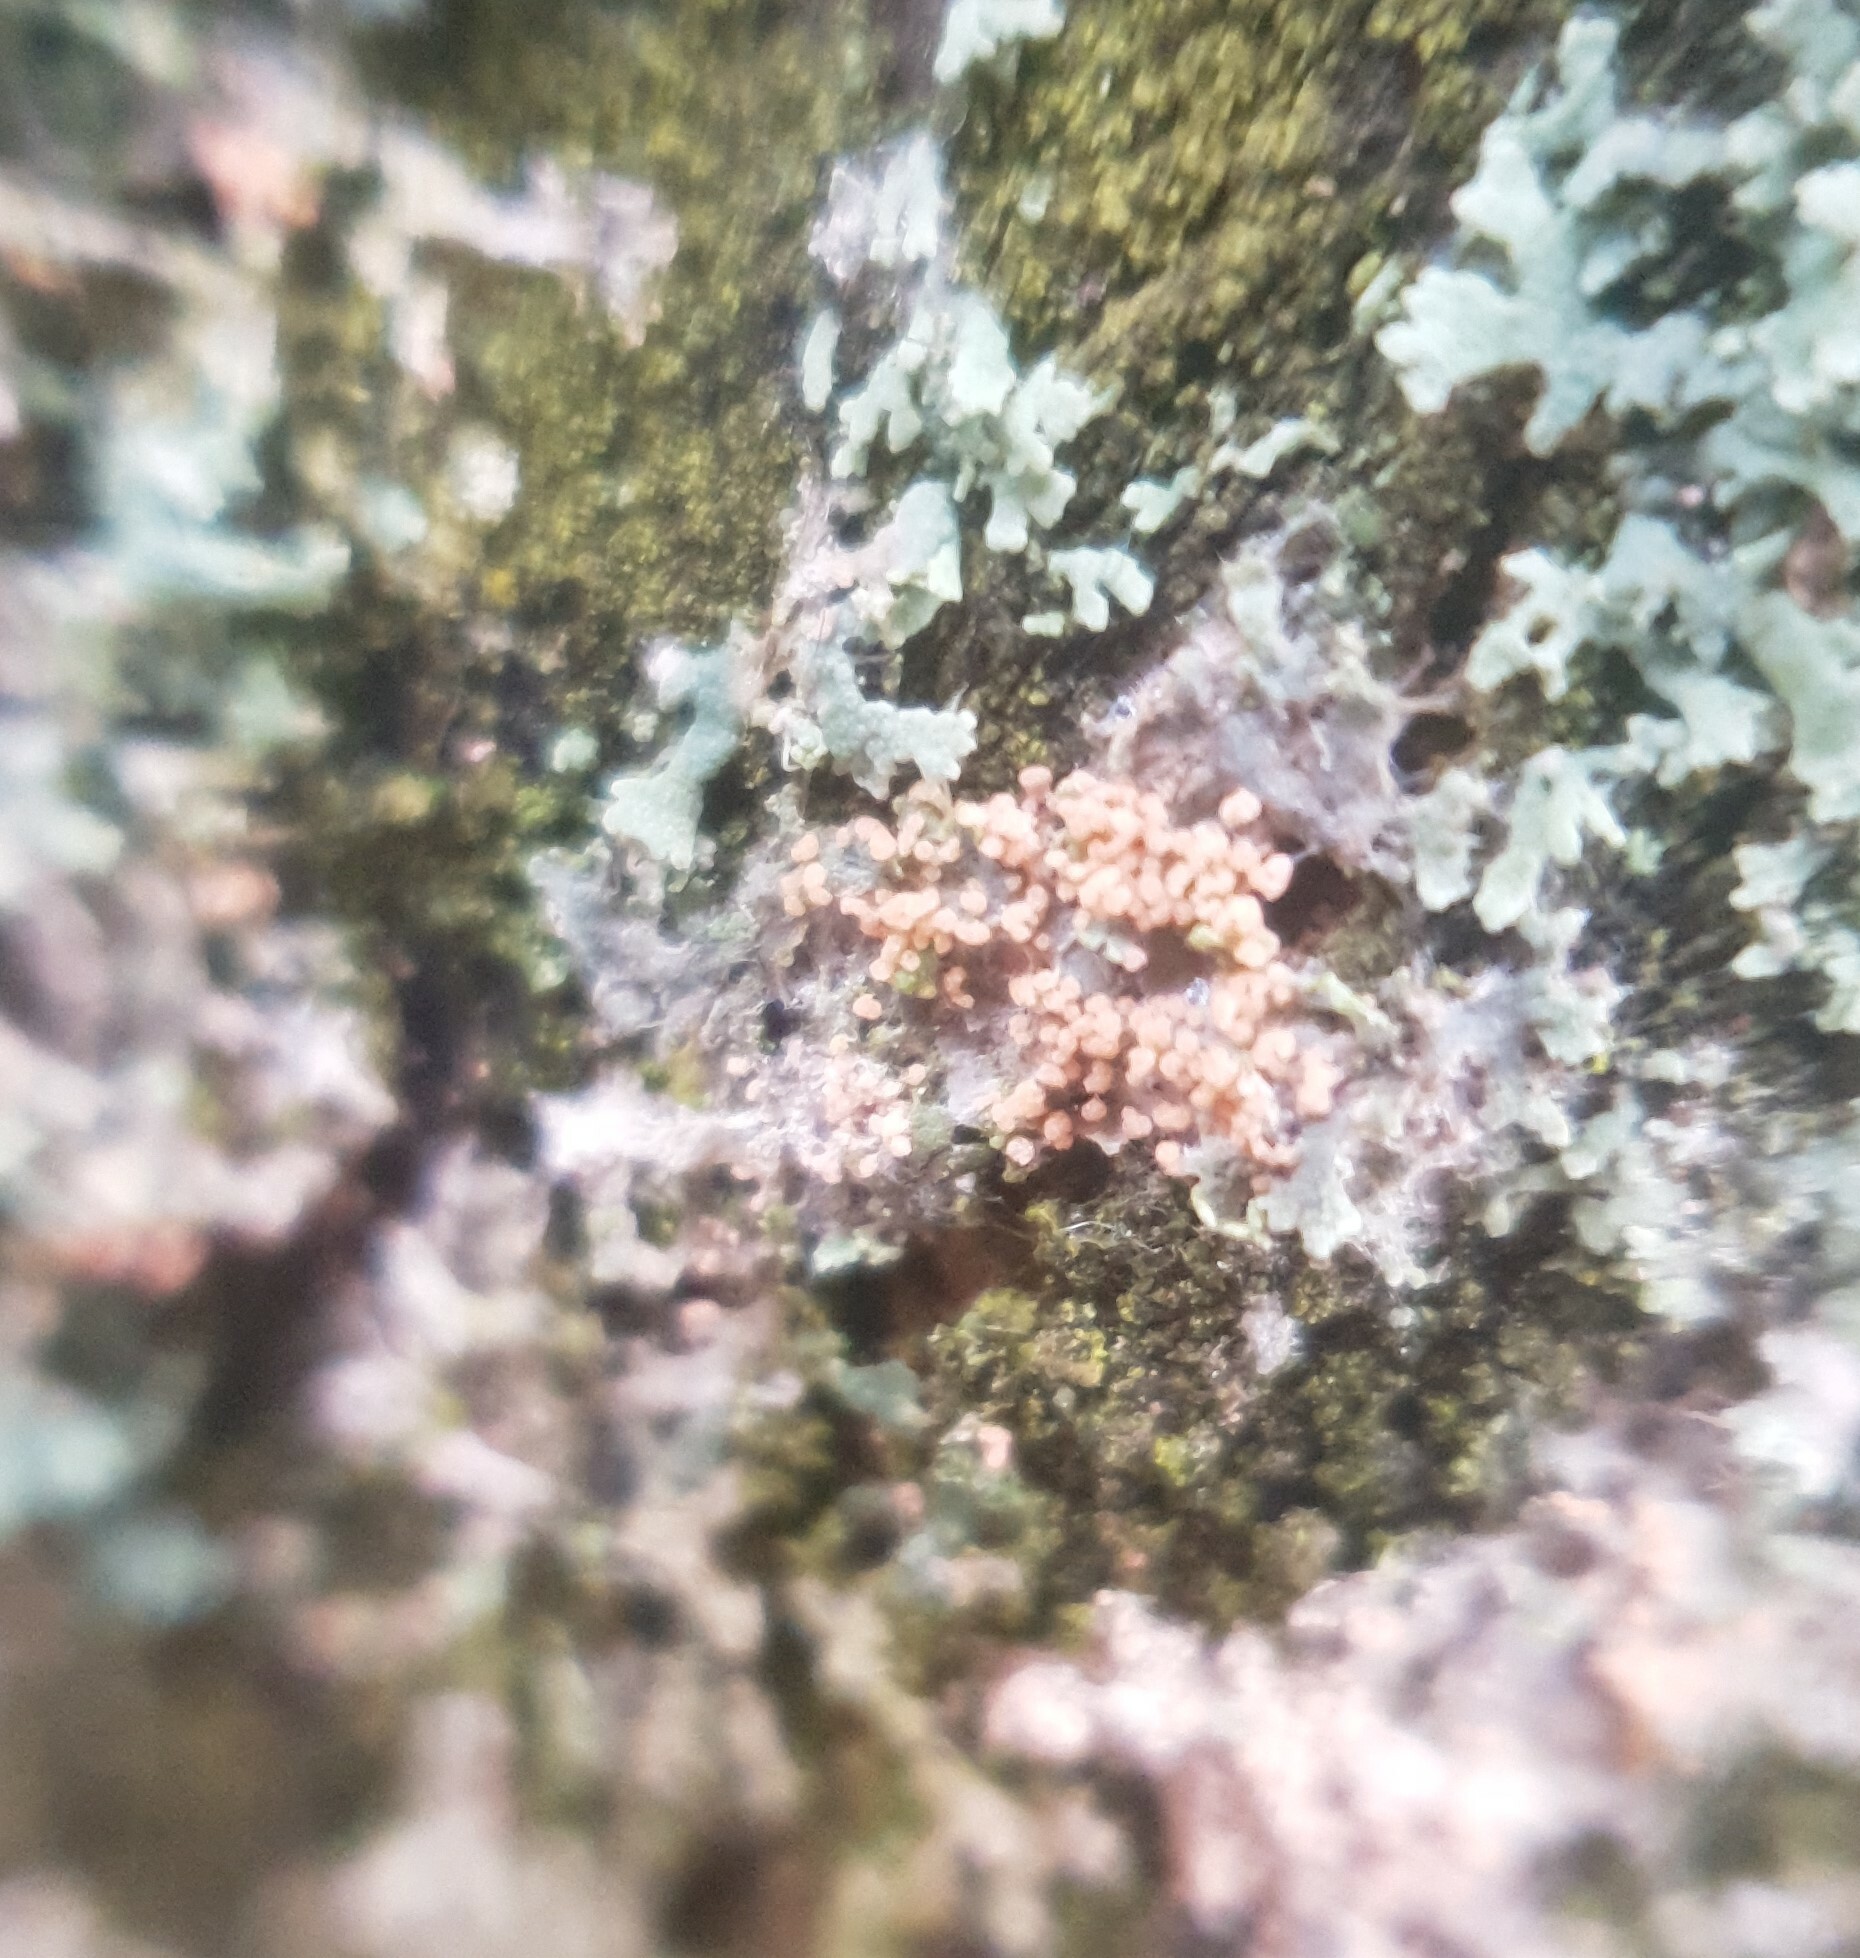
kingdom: Fungi
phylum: Basidiomycota
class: Agaricomycetes
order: Corticiales
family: Corticiaceae
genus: Erythricium
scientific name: Erythricium aurantiacum
